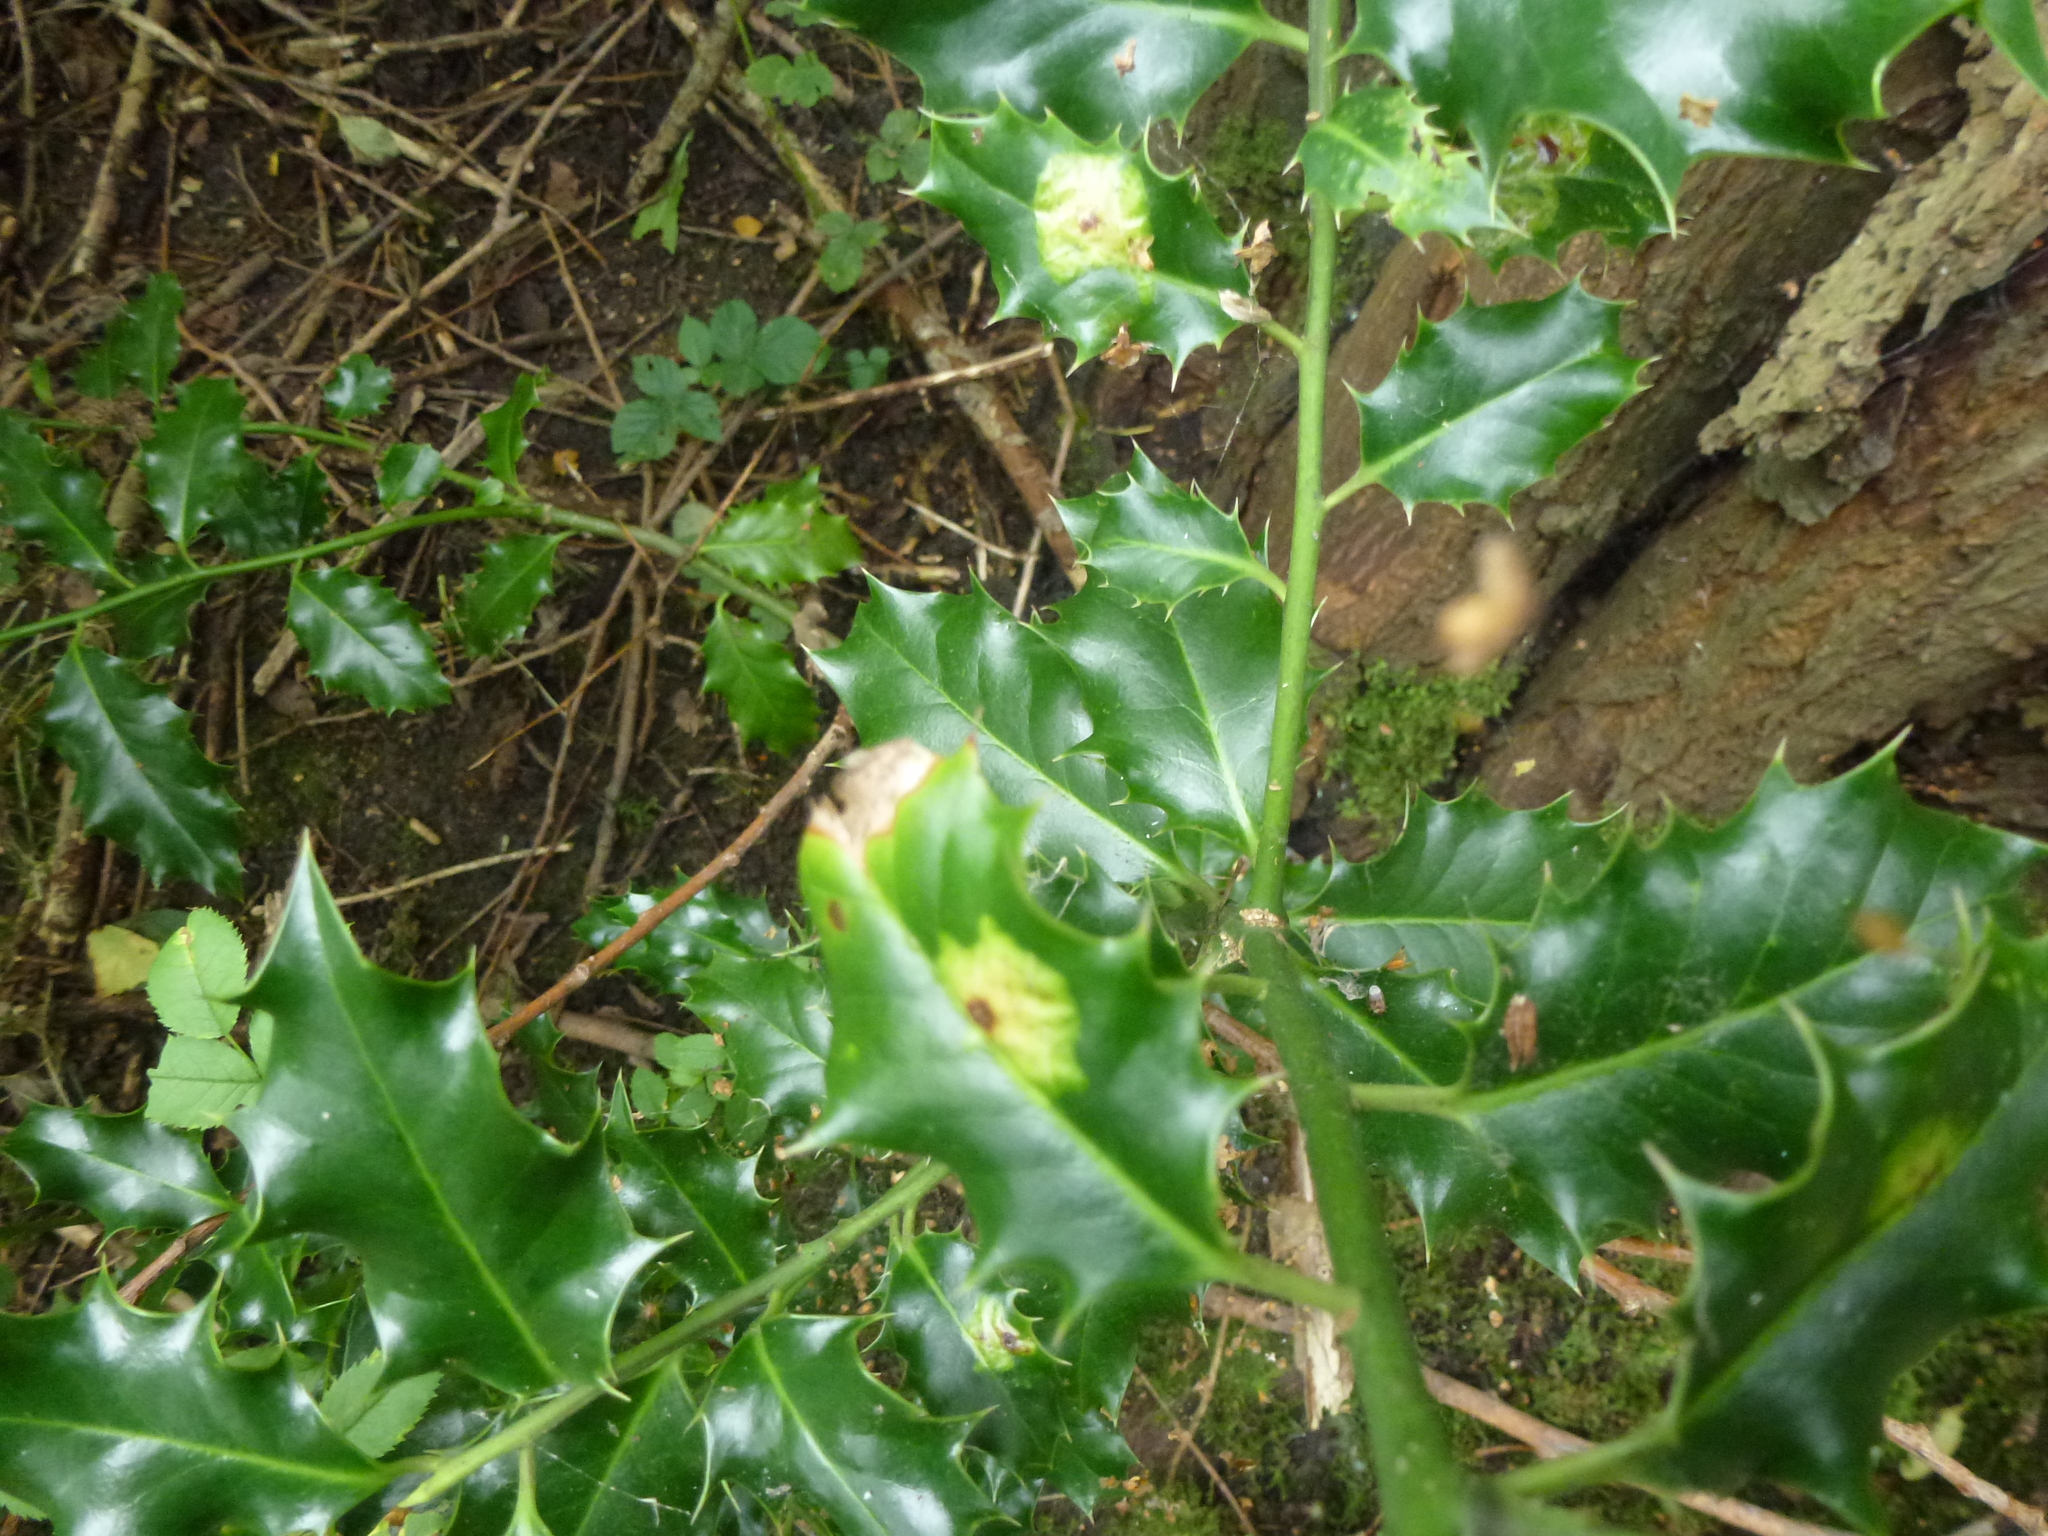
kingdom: Animalia
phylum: Arthropoda
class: Insecta
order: Diptera
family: Agromyzidae
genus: Phytomyza
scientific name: Phytomyza ilicis
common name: Holly leafminer
